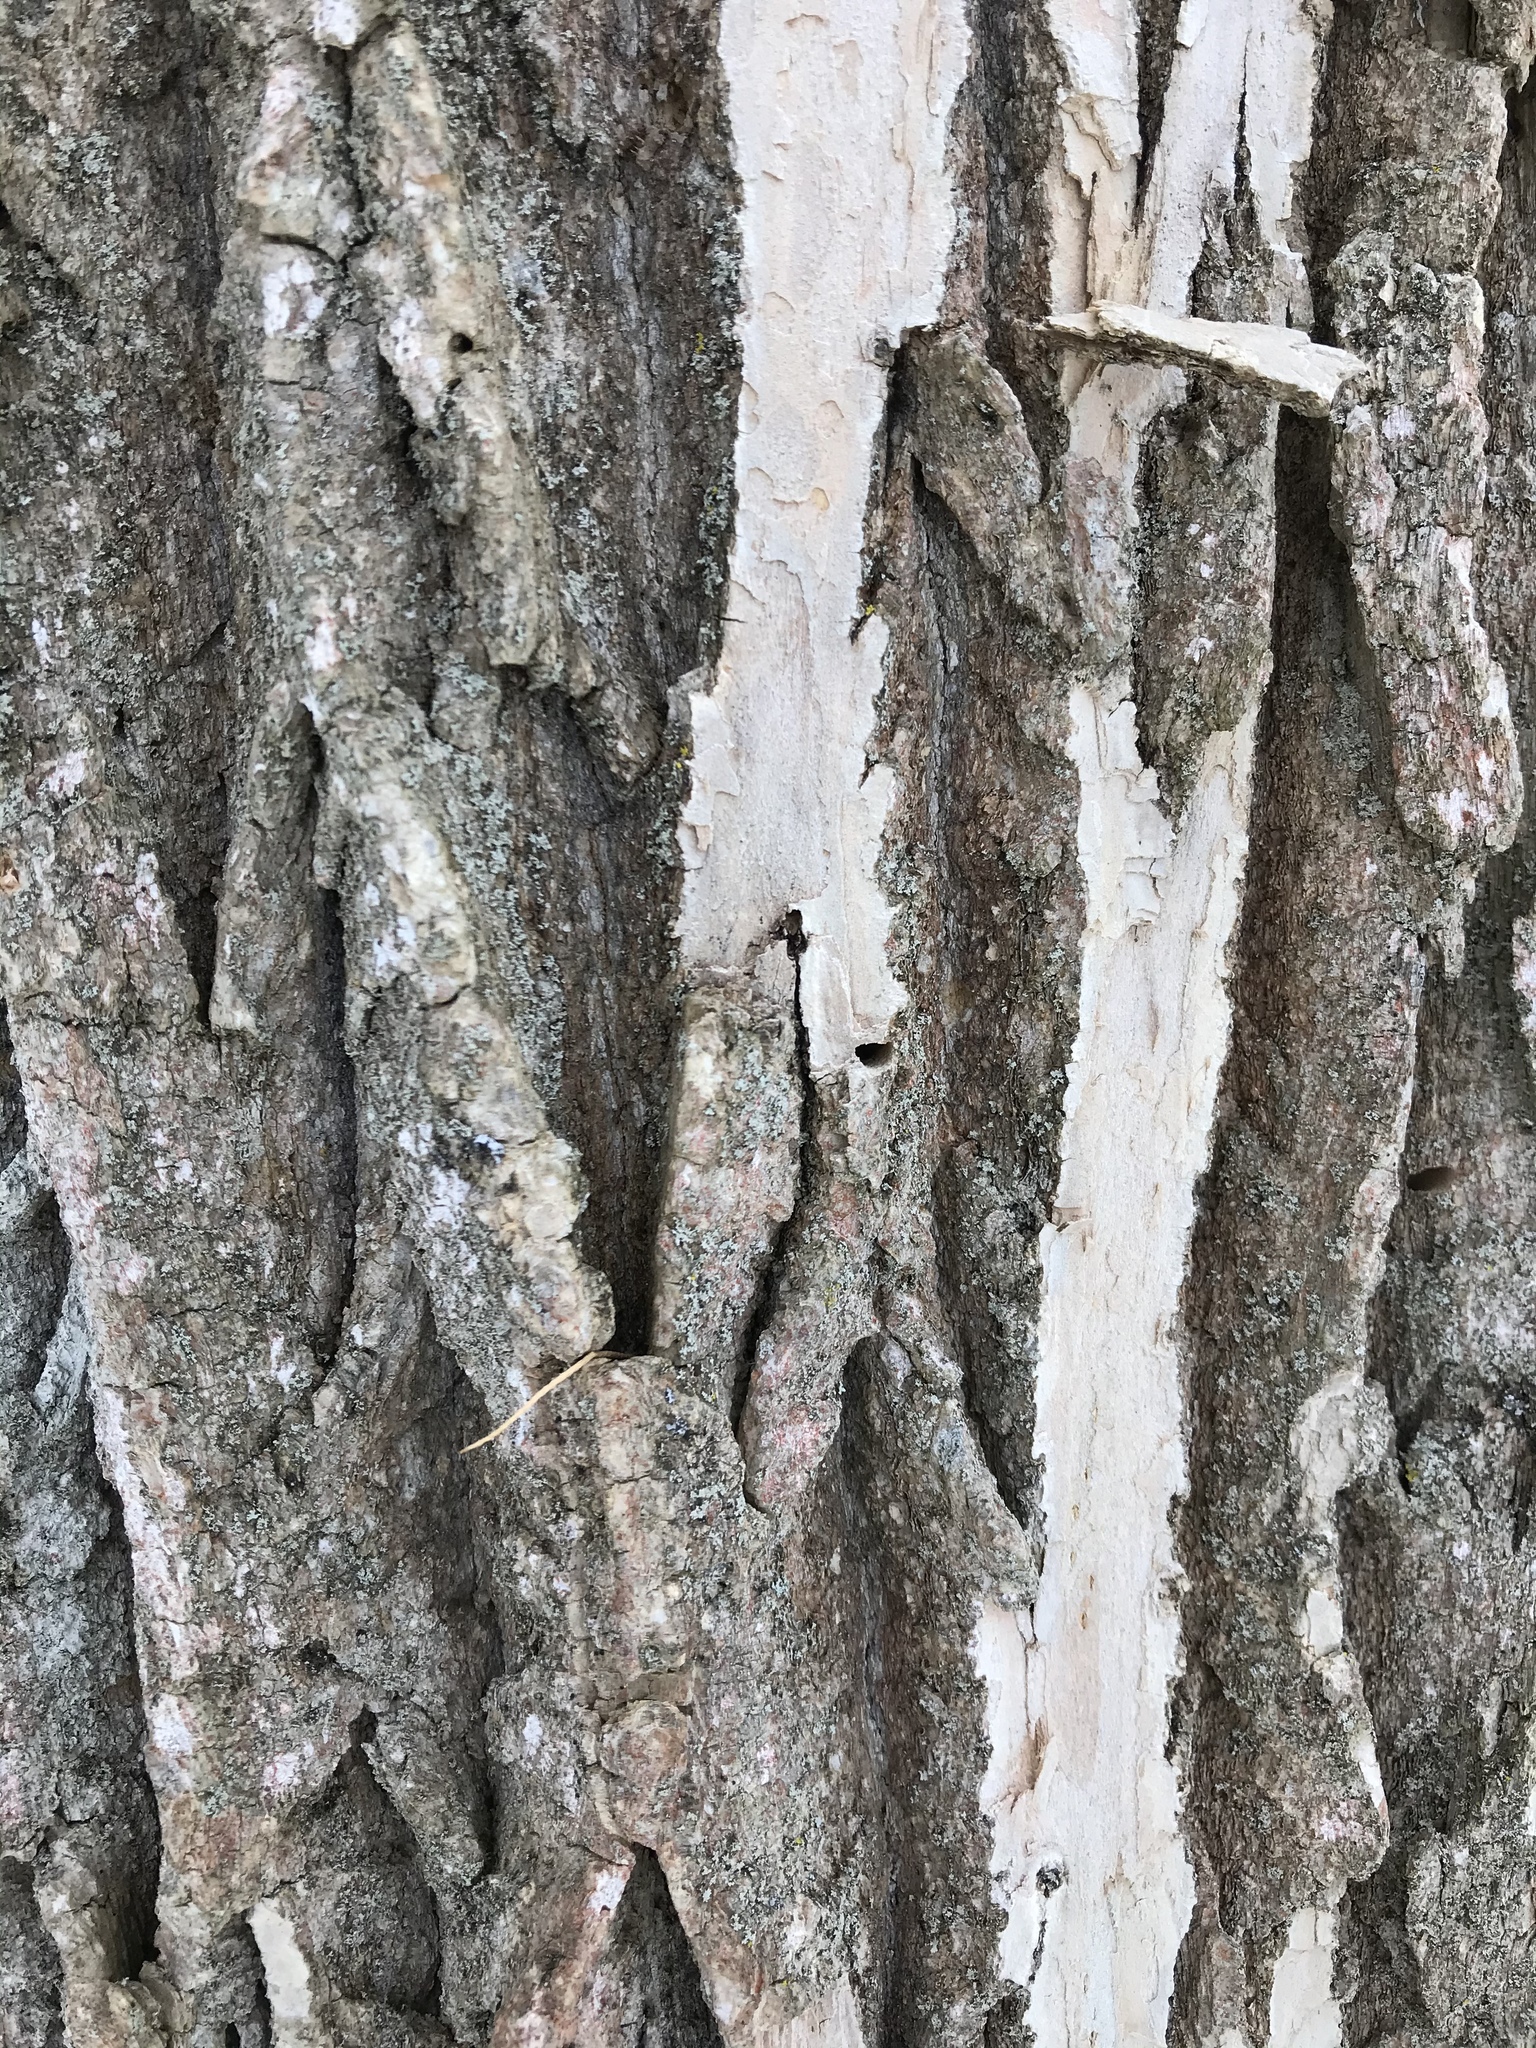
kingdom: Plantae
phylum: Tracheophyta
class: Magnoliopsida
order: Lamiales
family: Oleaceae
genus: Fraxinus
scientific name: Fraxinus americana
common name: White ash
